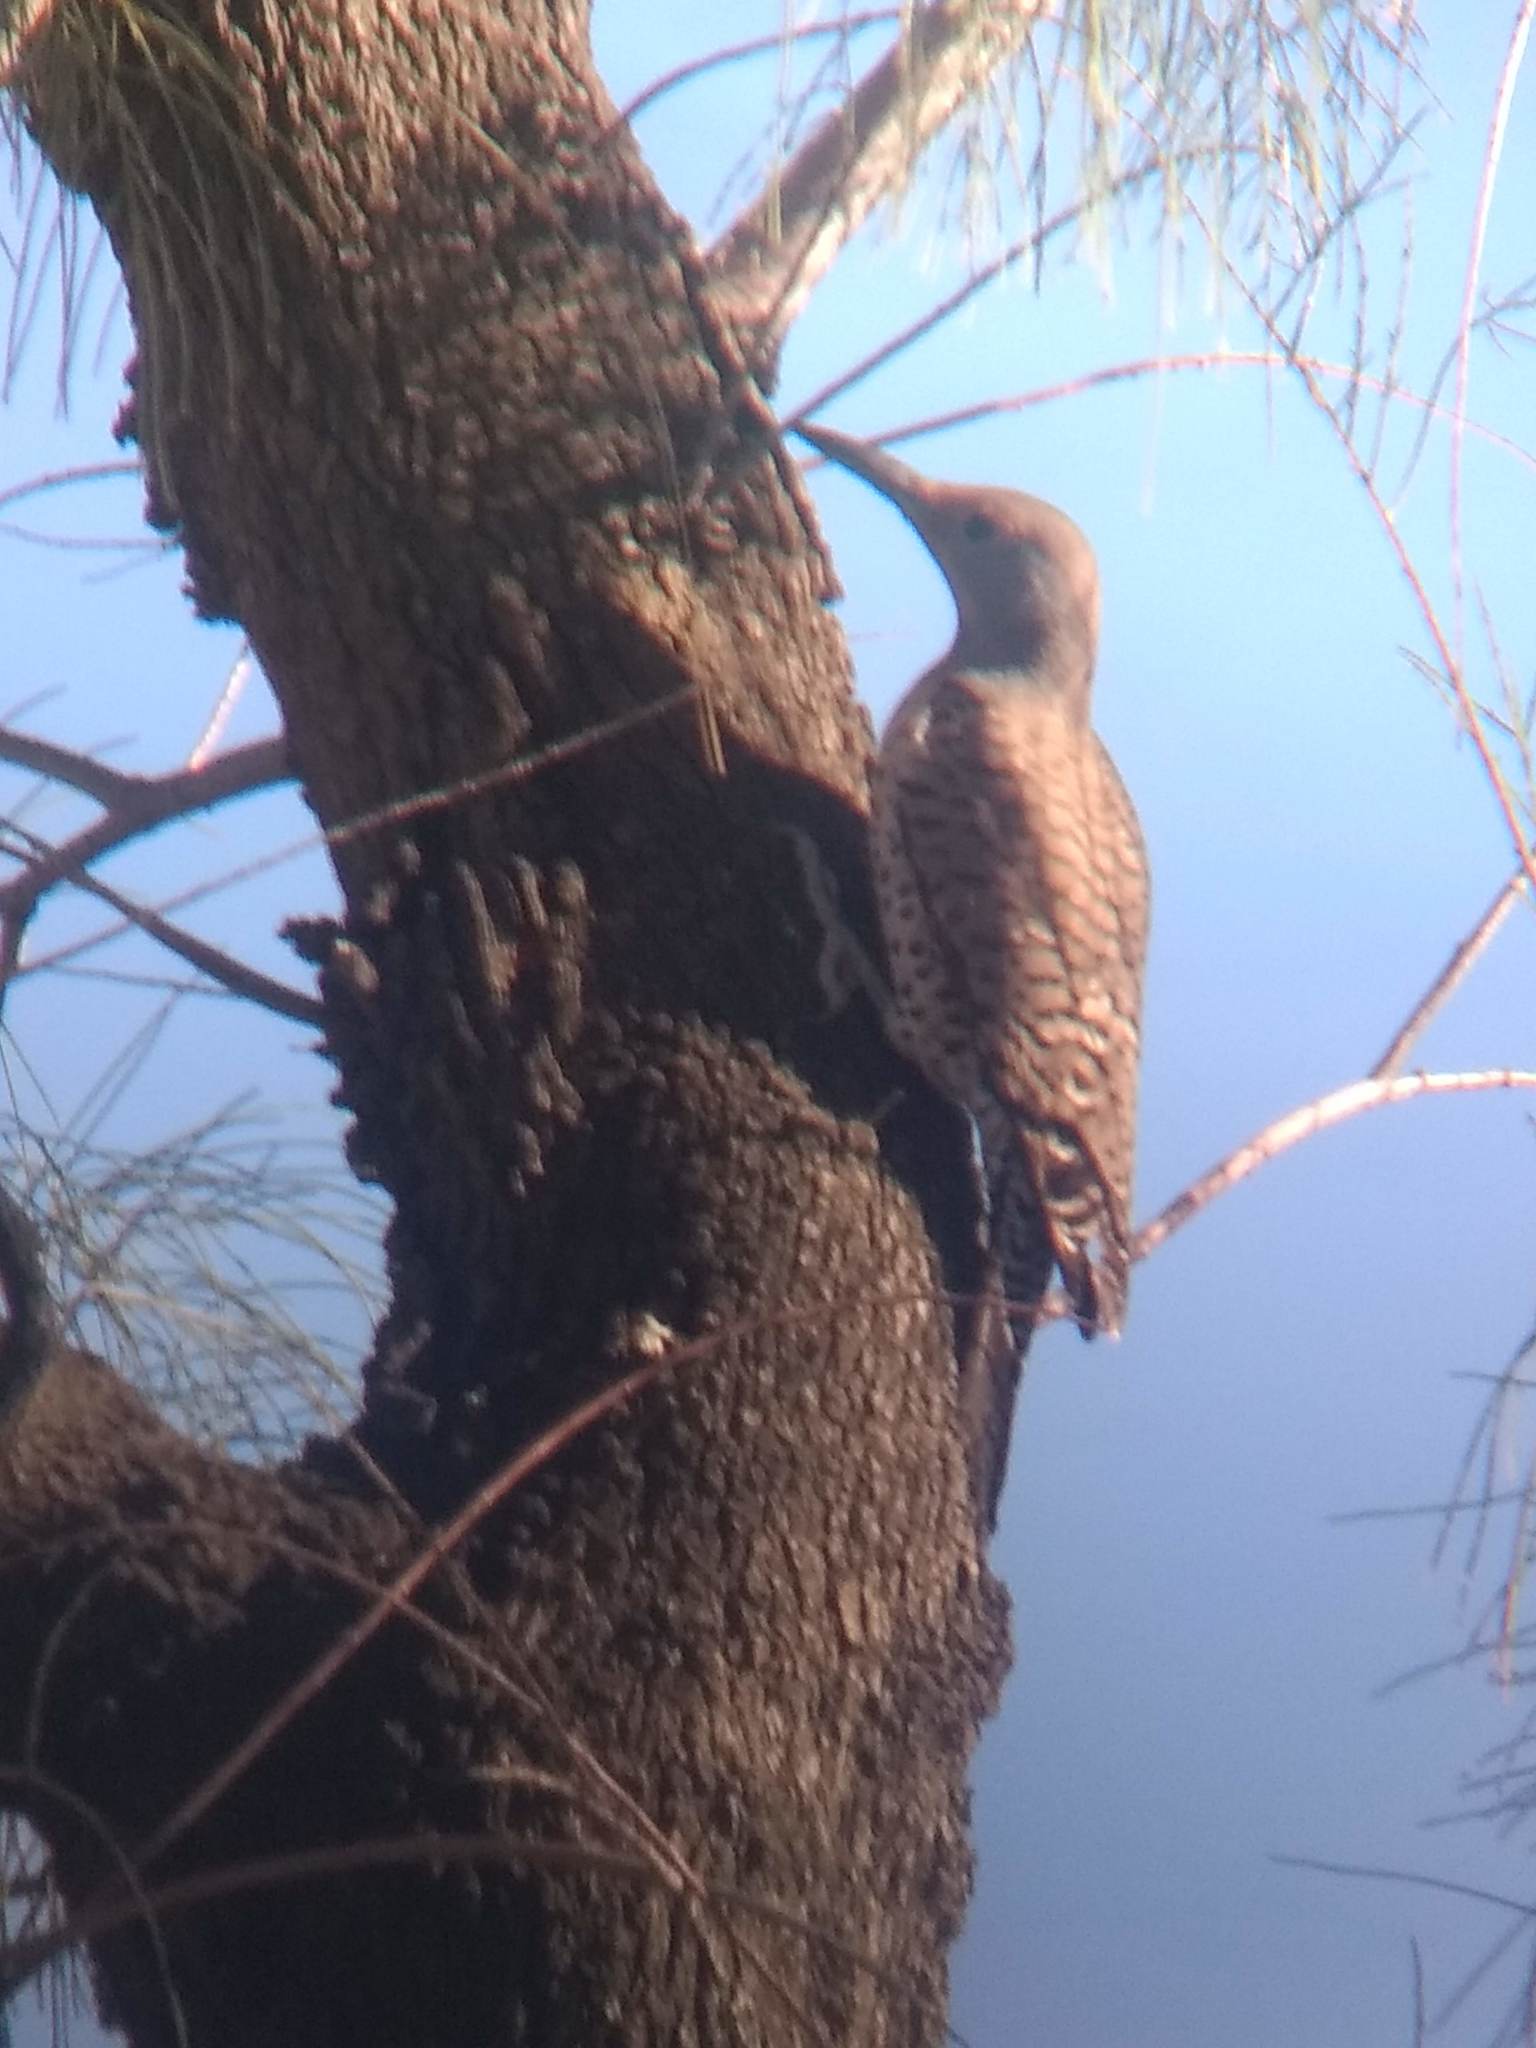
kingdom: Animalia
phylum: Chordata
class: Aves
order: Piciformes
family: Picidae
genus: Colaptes
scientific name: Colaptes auratus
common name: Northern flicker
